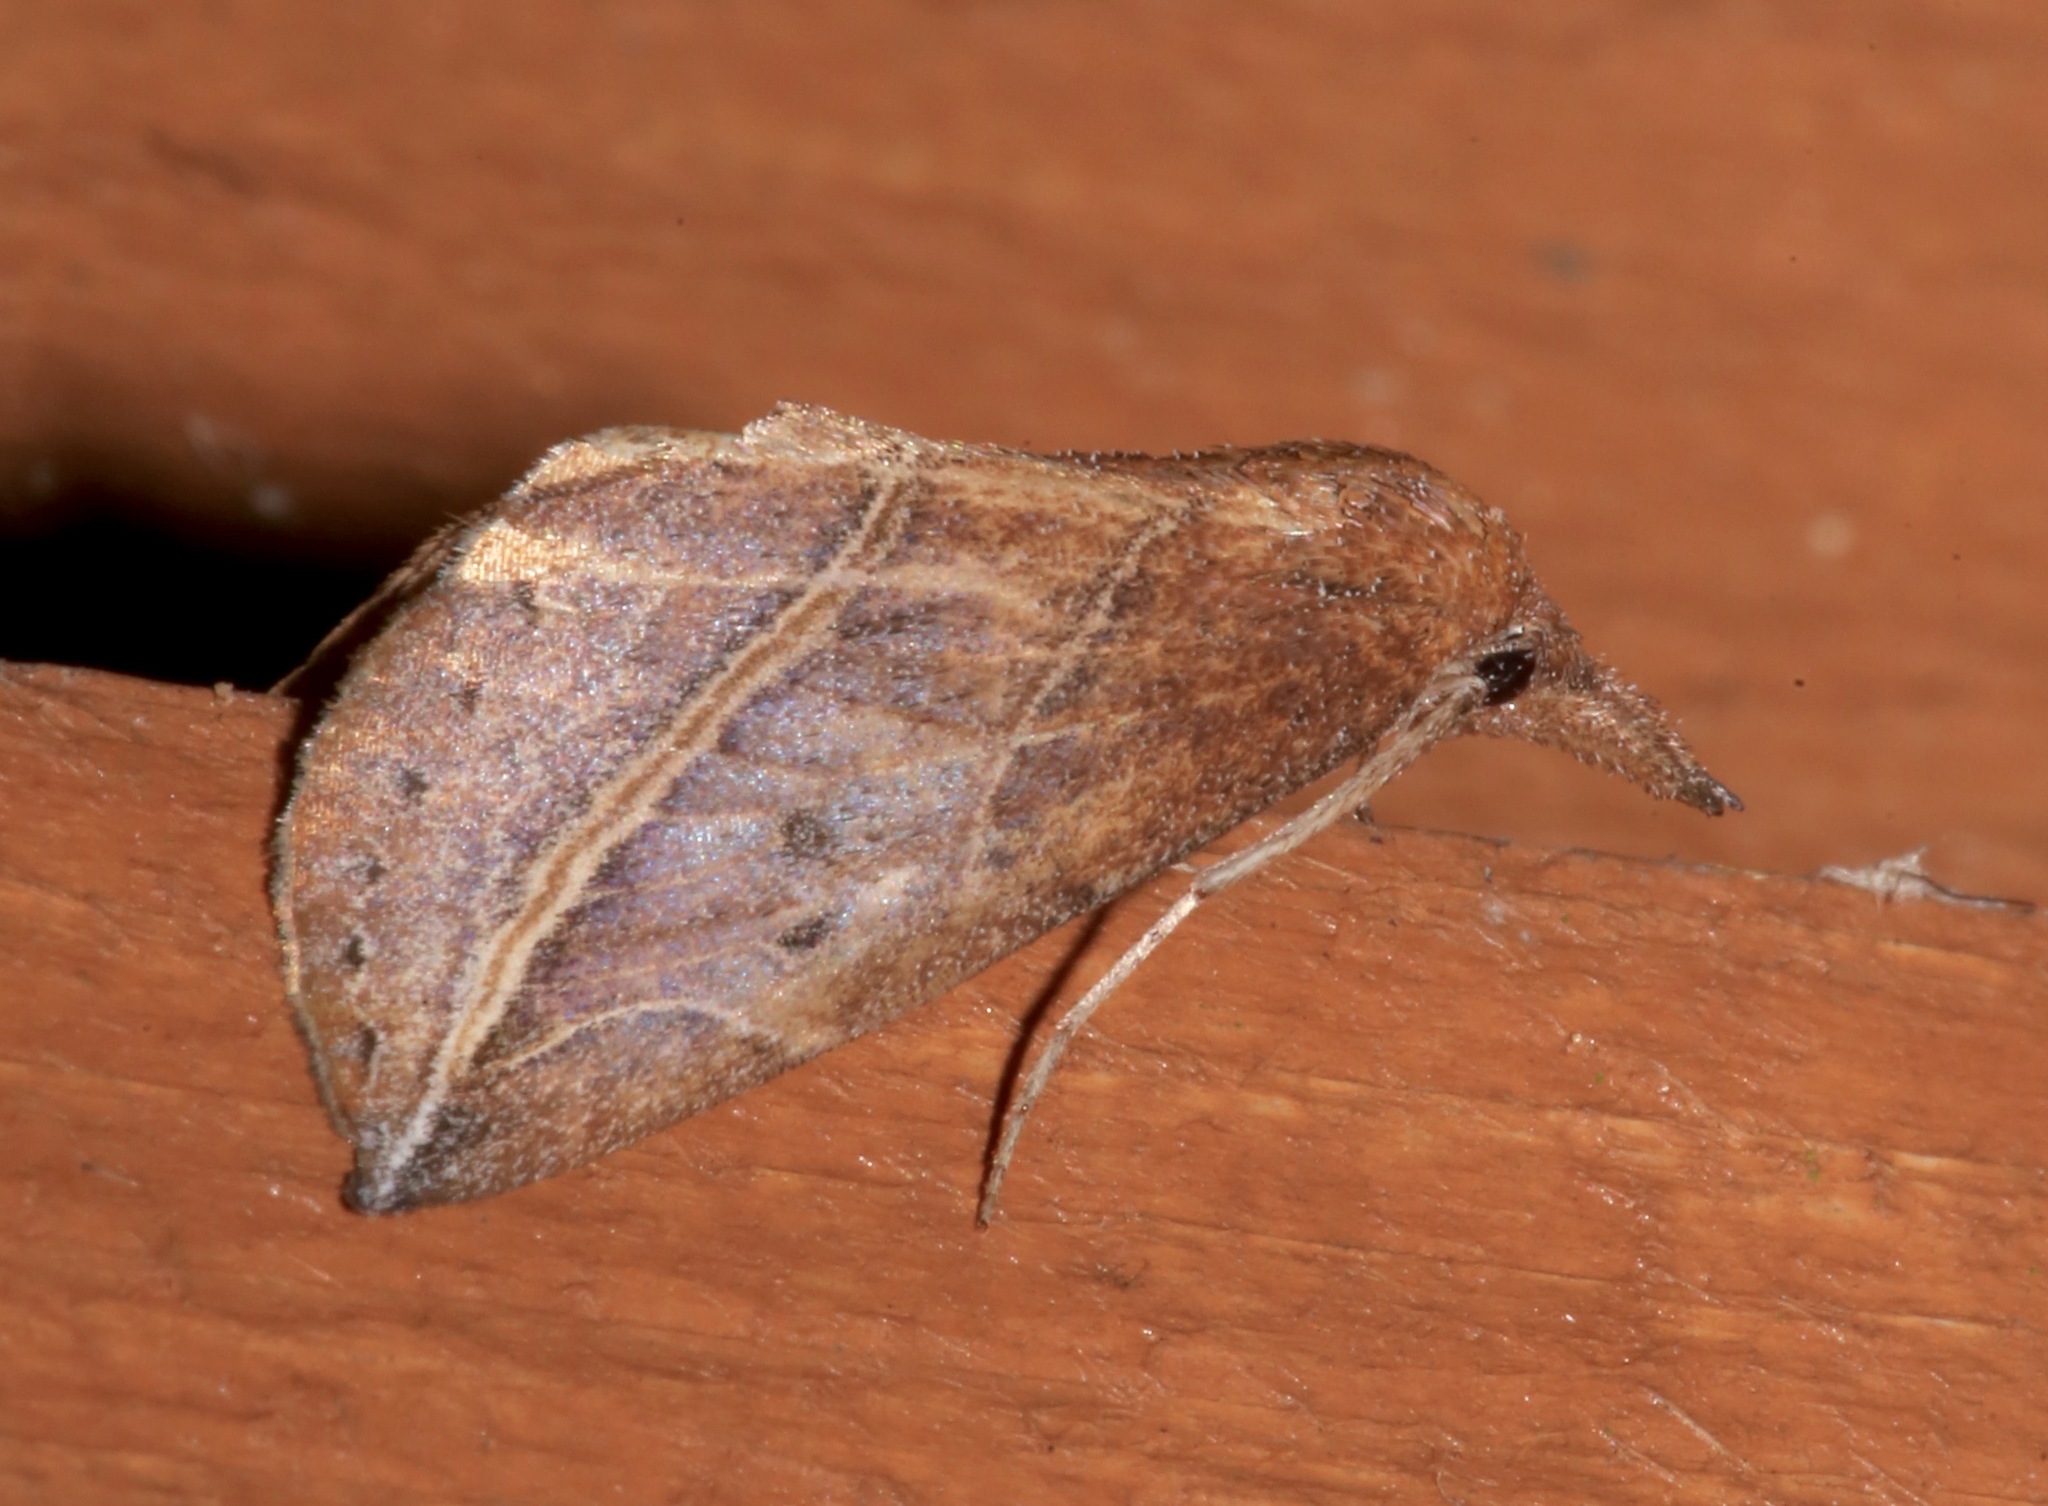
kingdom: Animalia
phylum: Arthropoda
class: Insecta
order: Lepidoptera
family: Erebidae
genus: Phyprosopus
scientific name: Phyprosopus callitrichoides
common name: Curved-lined owlet
